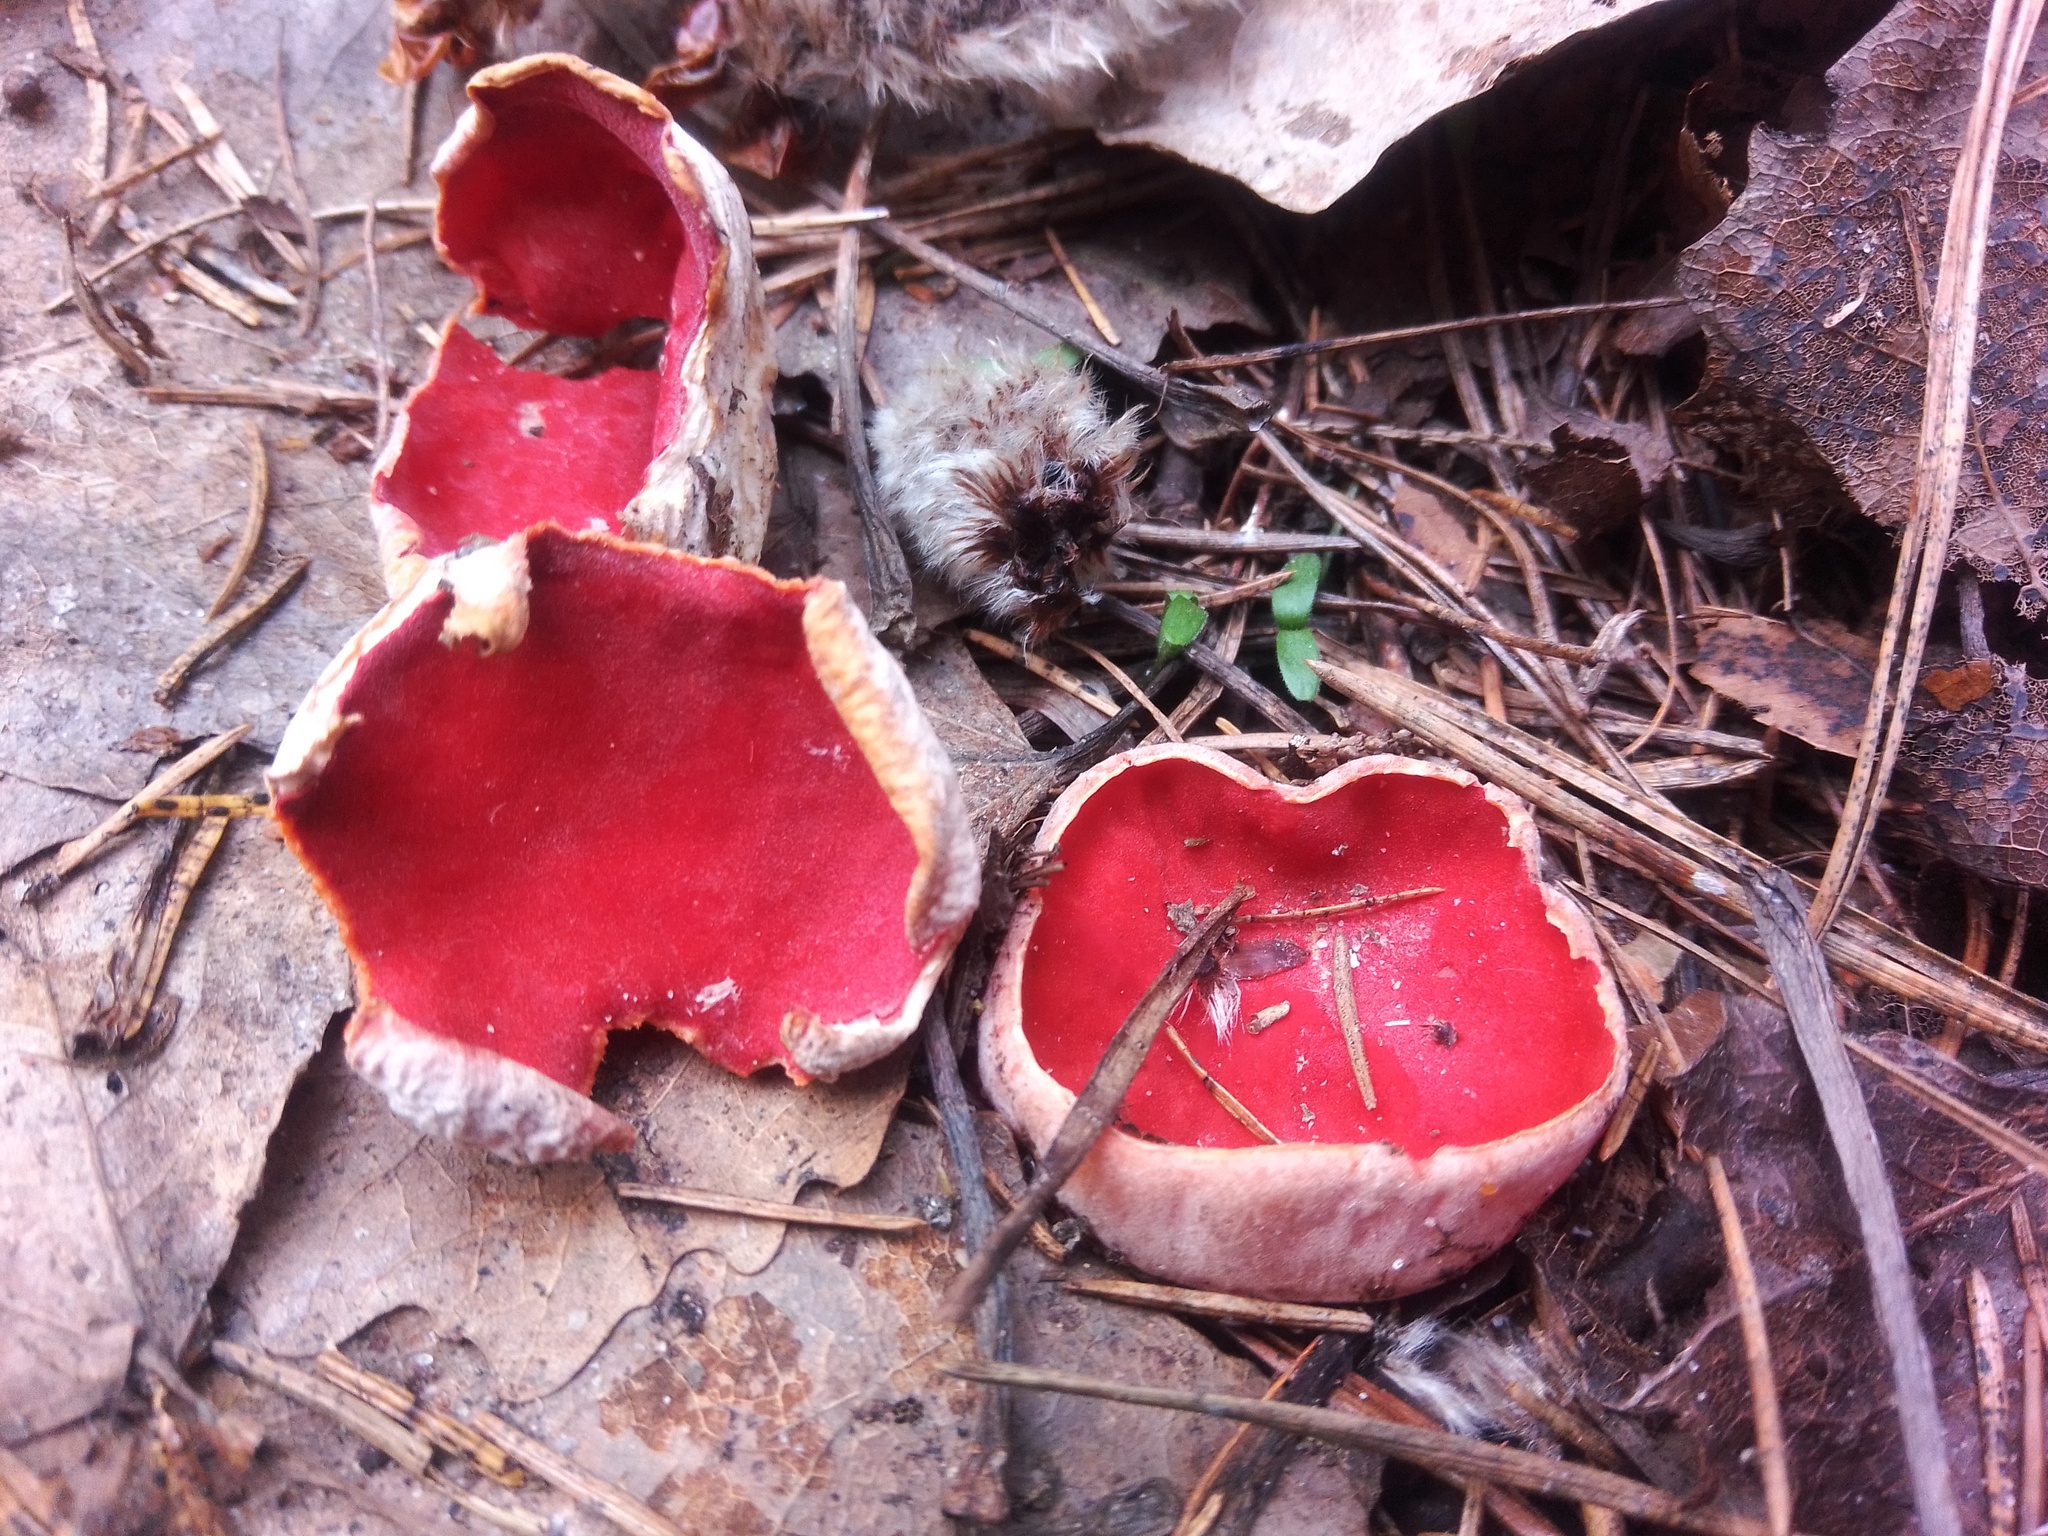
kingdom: Fungi
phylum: Ascomycota
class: Pezizomycetes
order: Pezizales
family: Sarcoscyphaceae
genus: Sarcoscypha
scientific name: Sarcoscypha austriaca
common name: Scarlet elfcup
